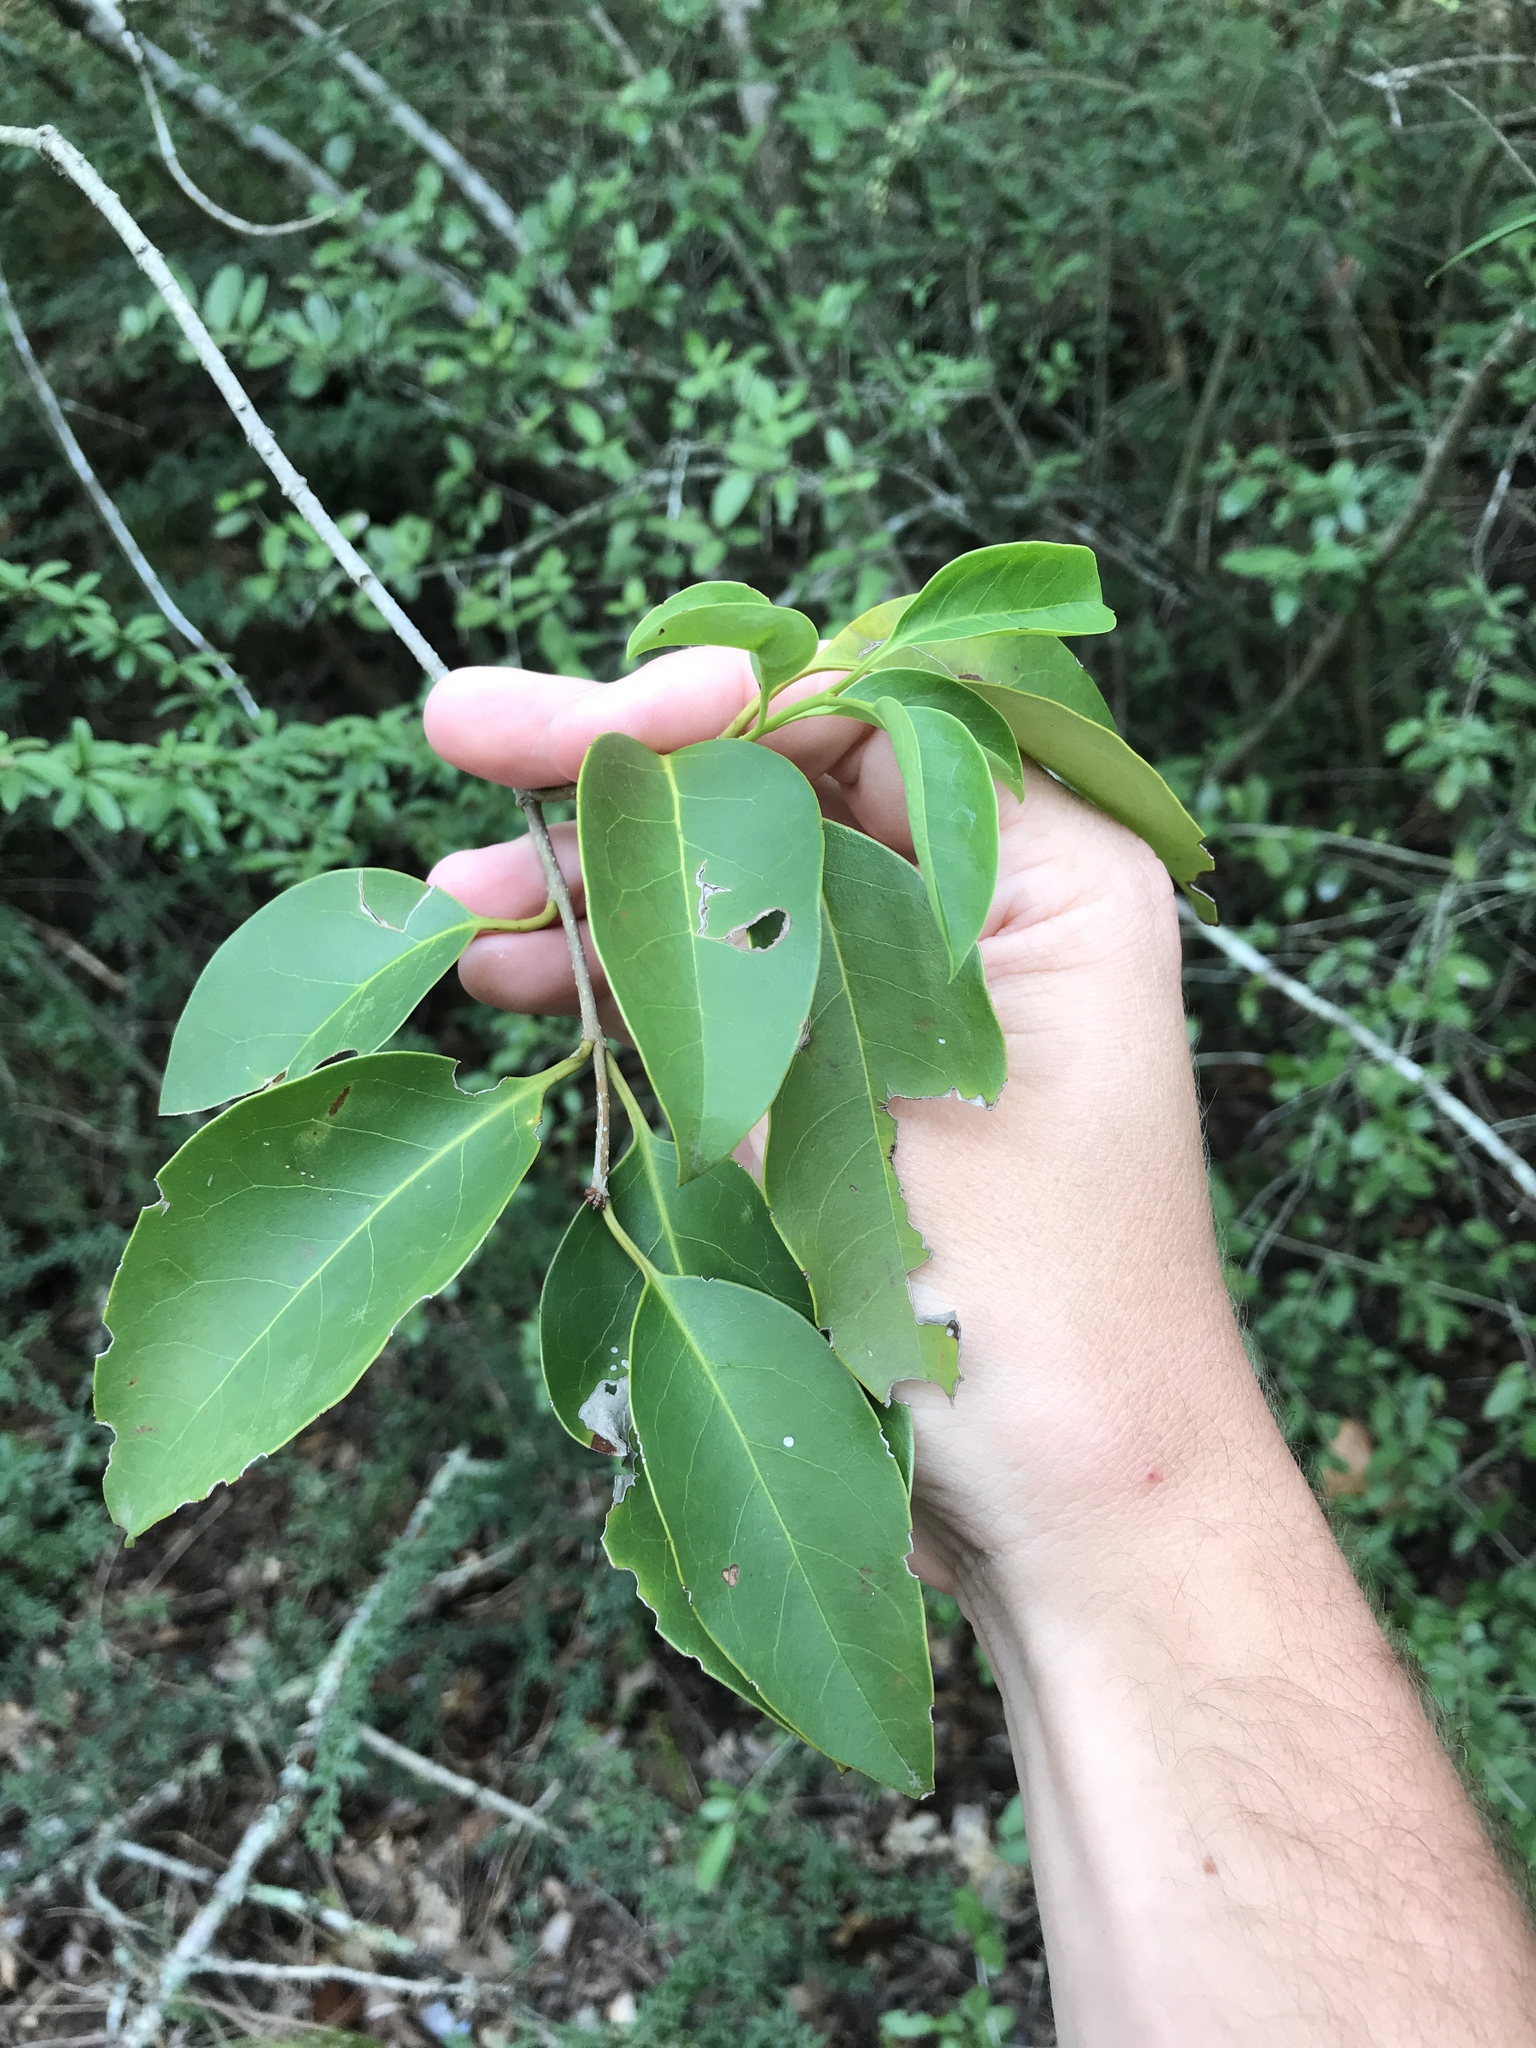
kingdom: Plantae
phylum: Tracheophyta
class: Magnoliopsida
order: Lamiales
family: Oleaceae
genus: Ligustrum
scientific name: Ligustrum lucidum
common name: Glossy privet
